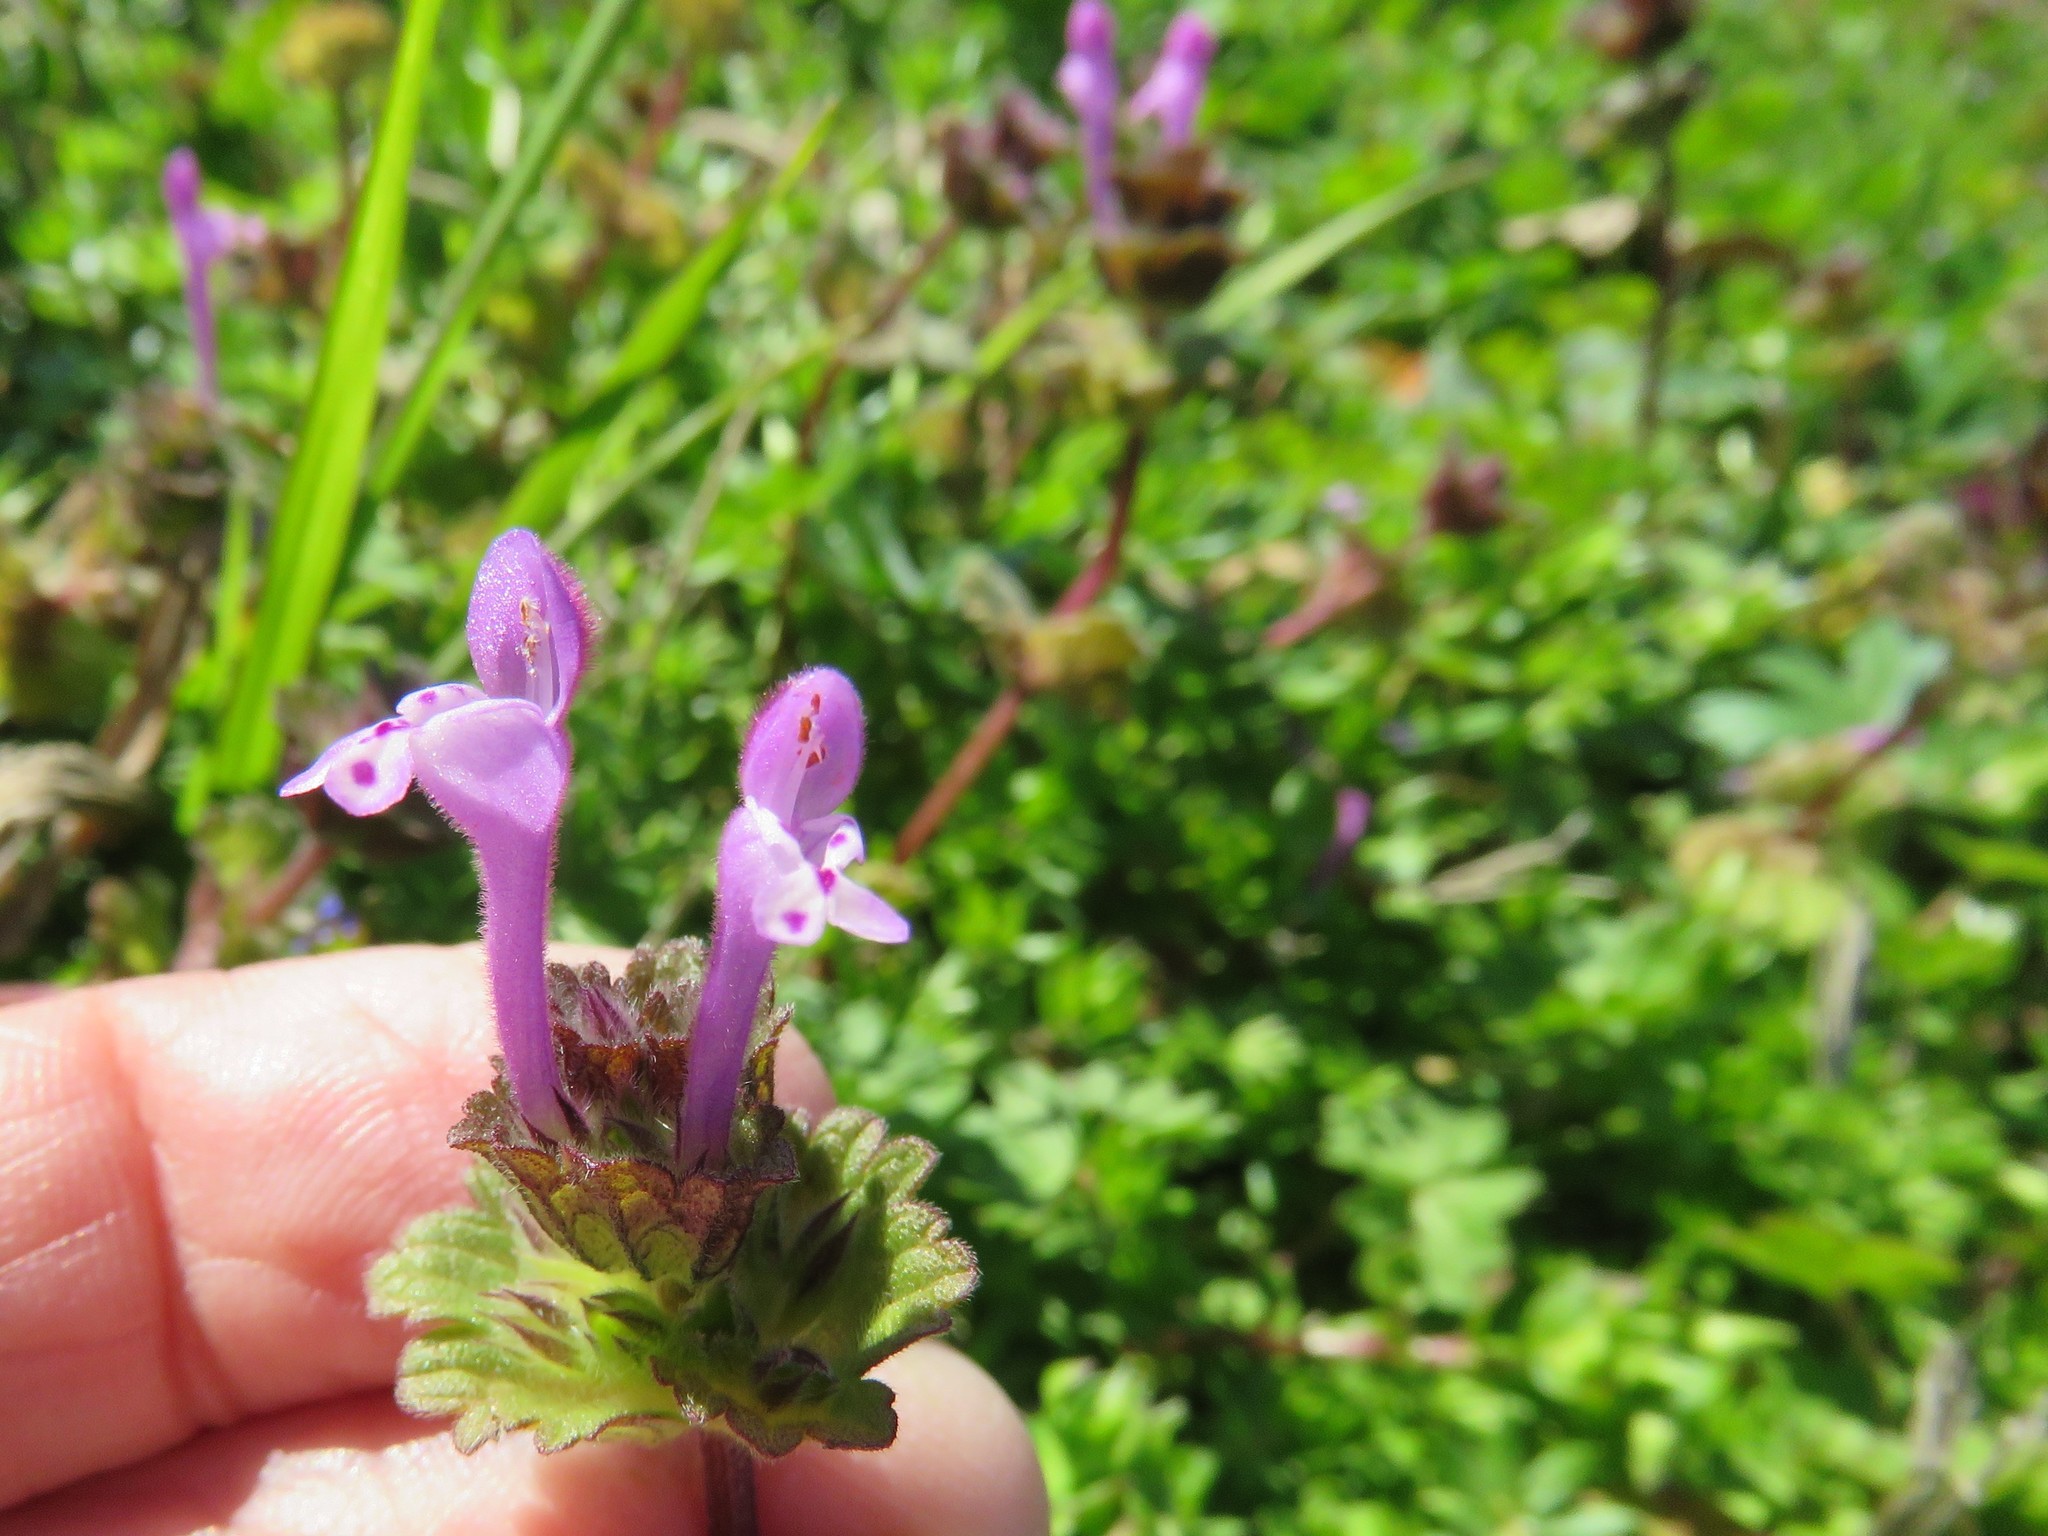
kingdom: Plantae
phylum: Tracheophyta
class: Magnoliopsida
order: Lamiales
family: Lamiaceae
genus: Lamium
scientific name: Lamium amplexicaule
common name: Henbit dead-nettle
